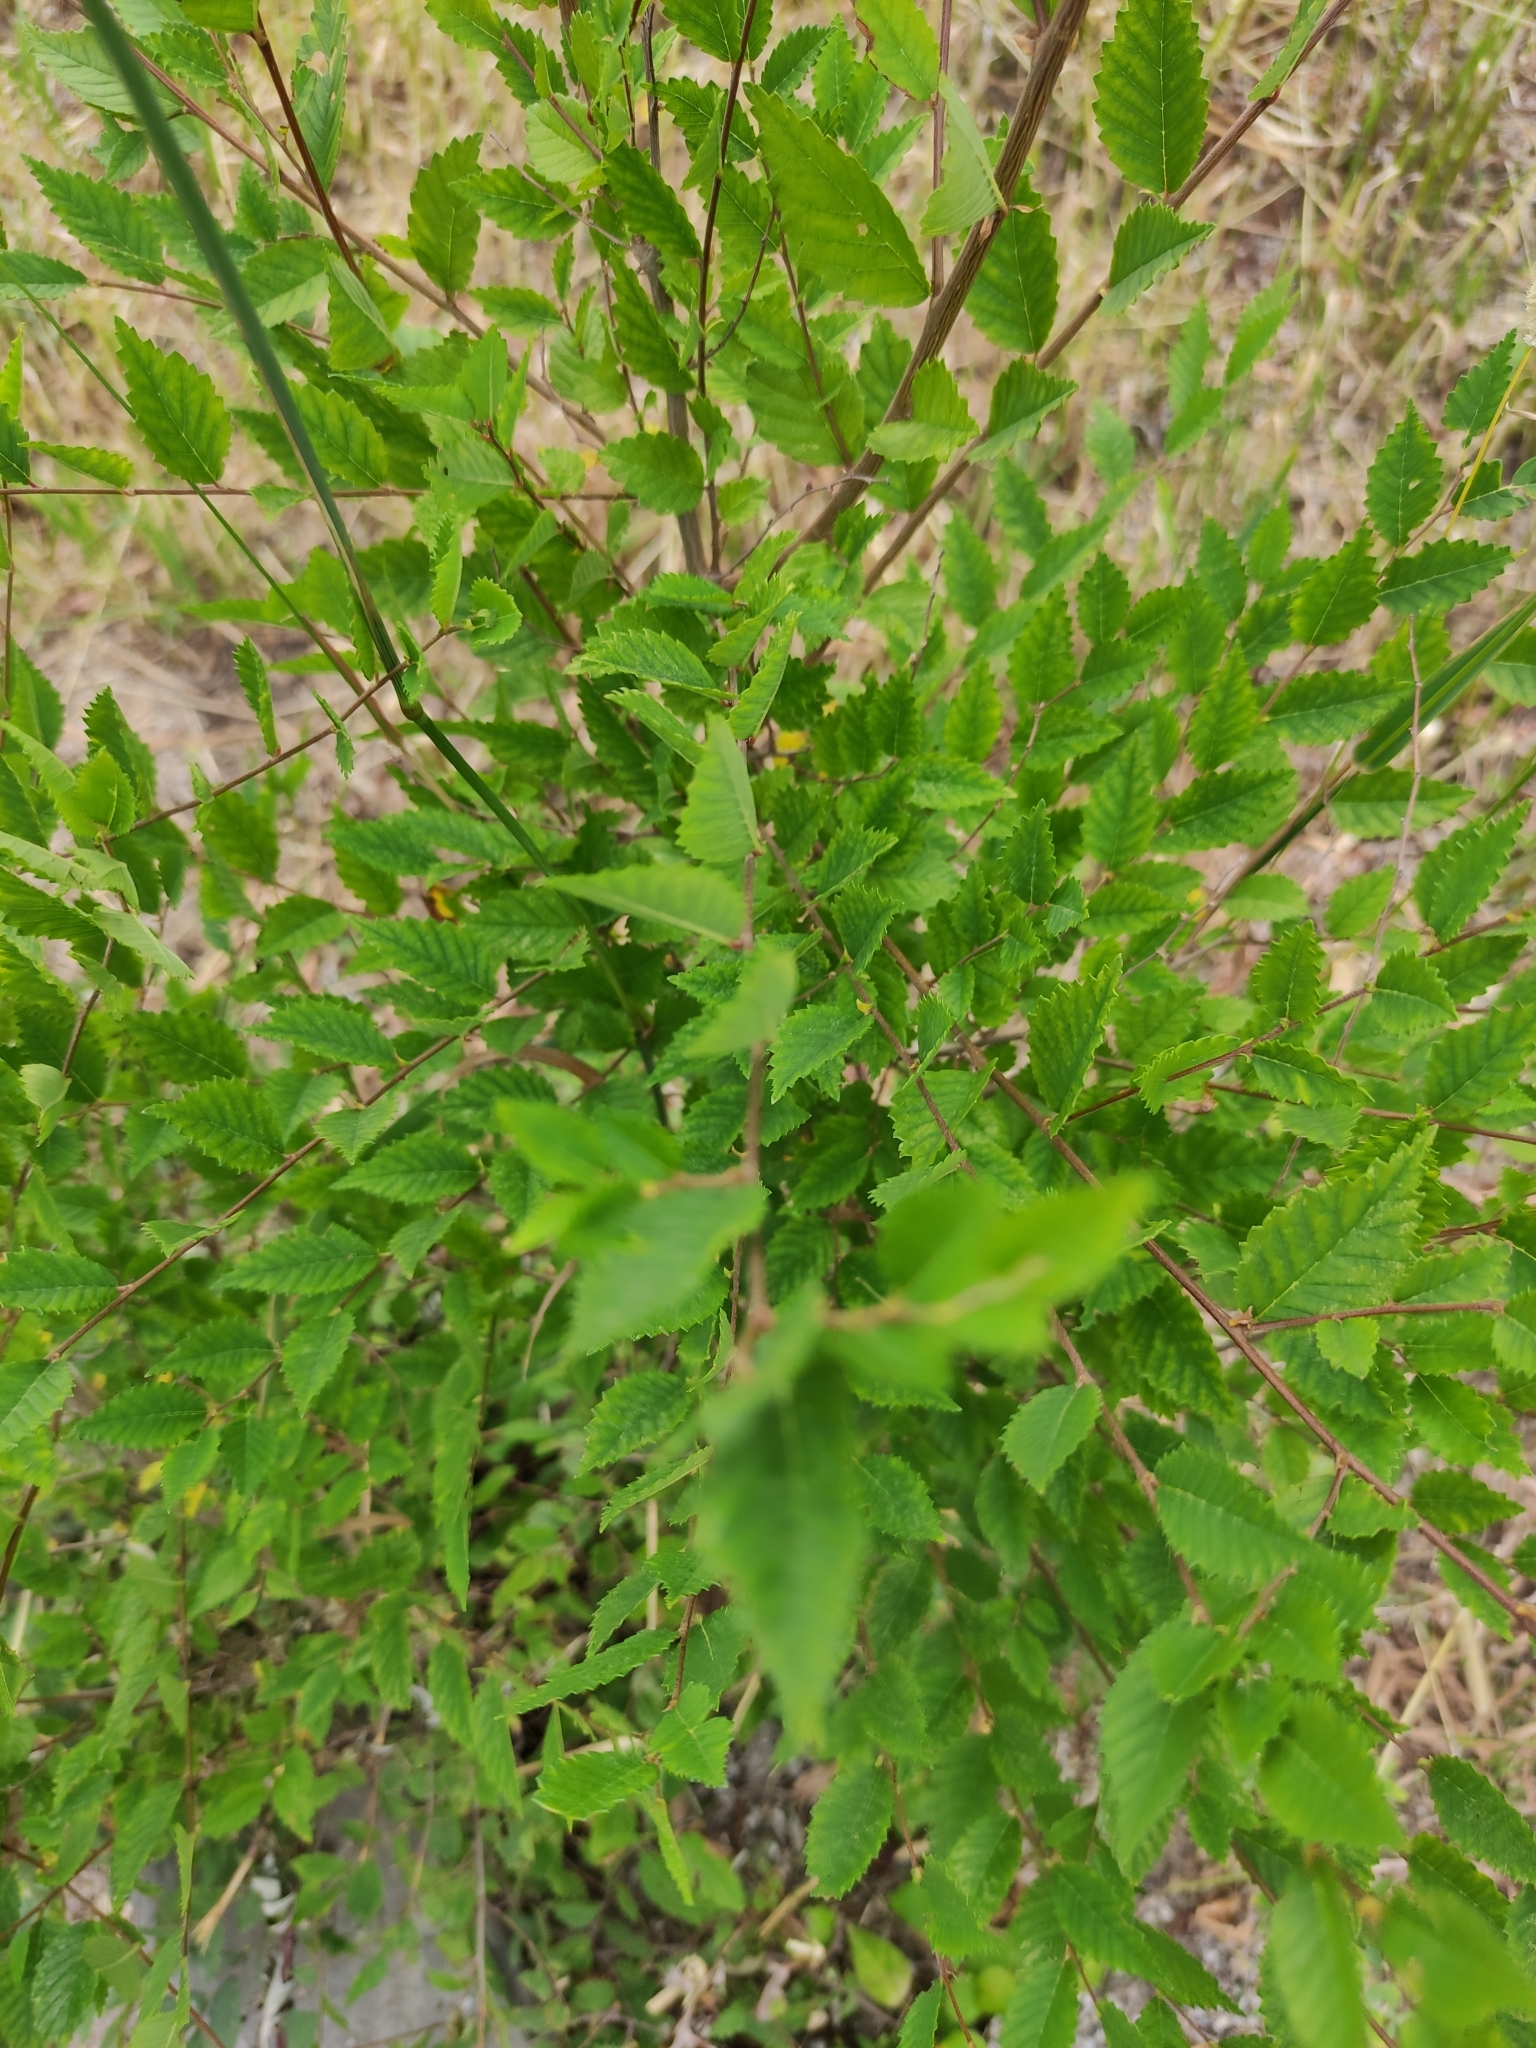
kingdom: Plantae
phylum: Tracheophyta
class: Magnoliopsida
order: Rosales
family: Ulmaceae
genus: Ulmus
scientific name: Ulmus pumila
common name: Siberian elm
